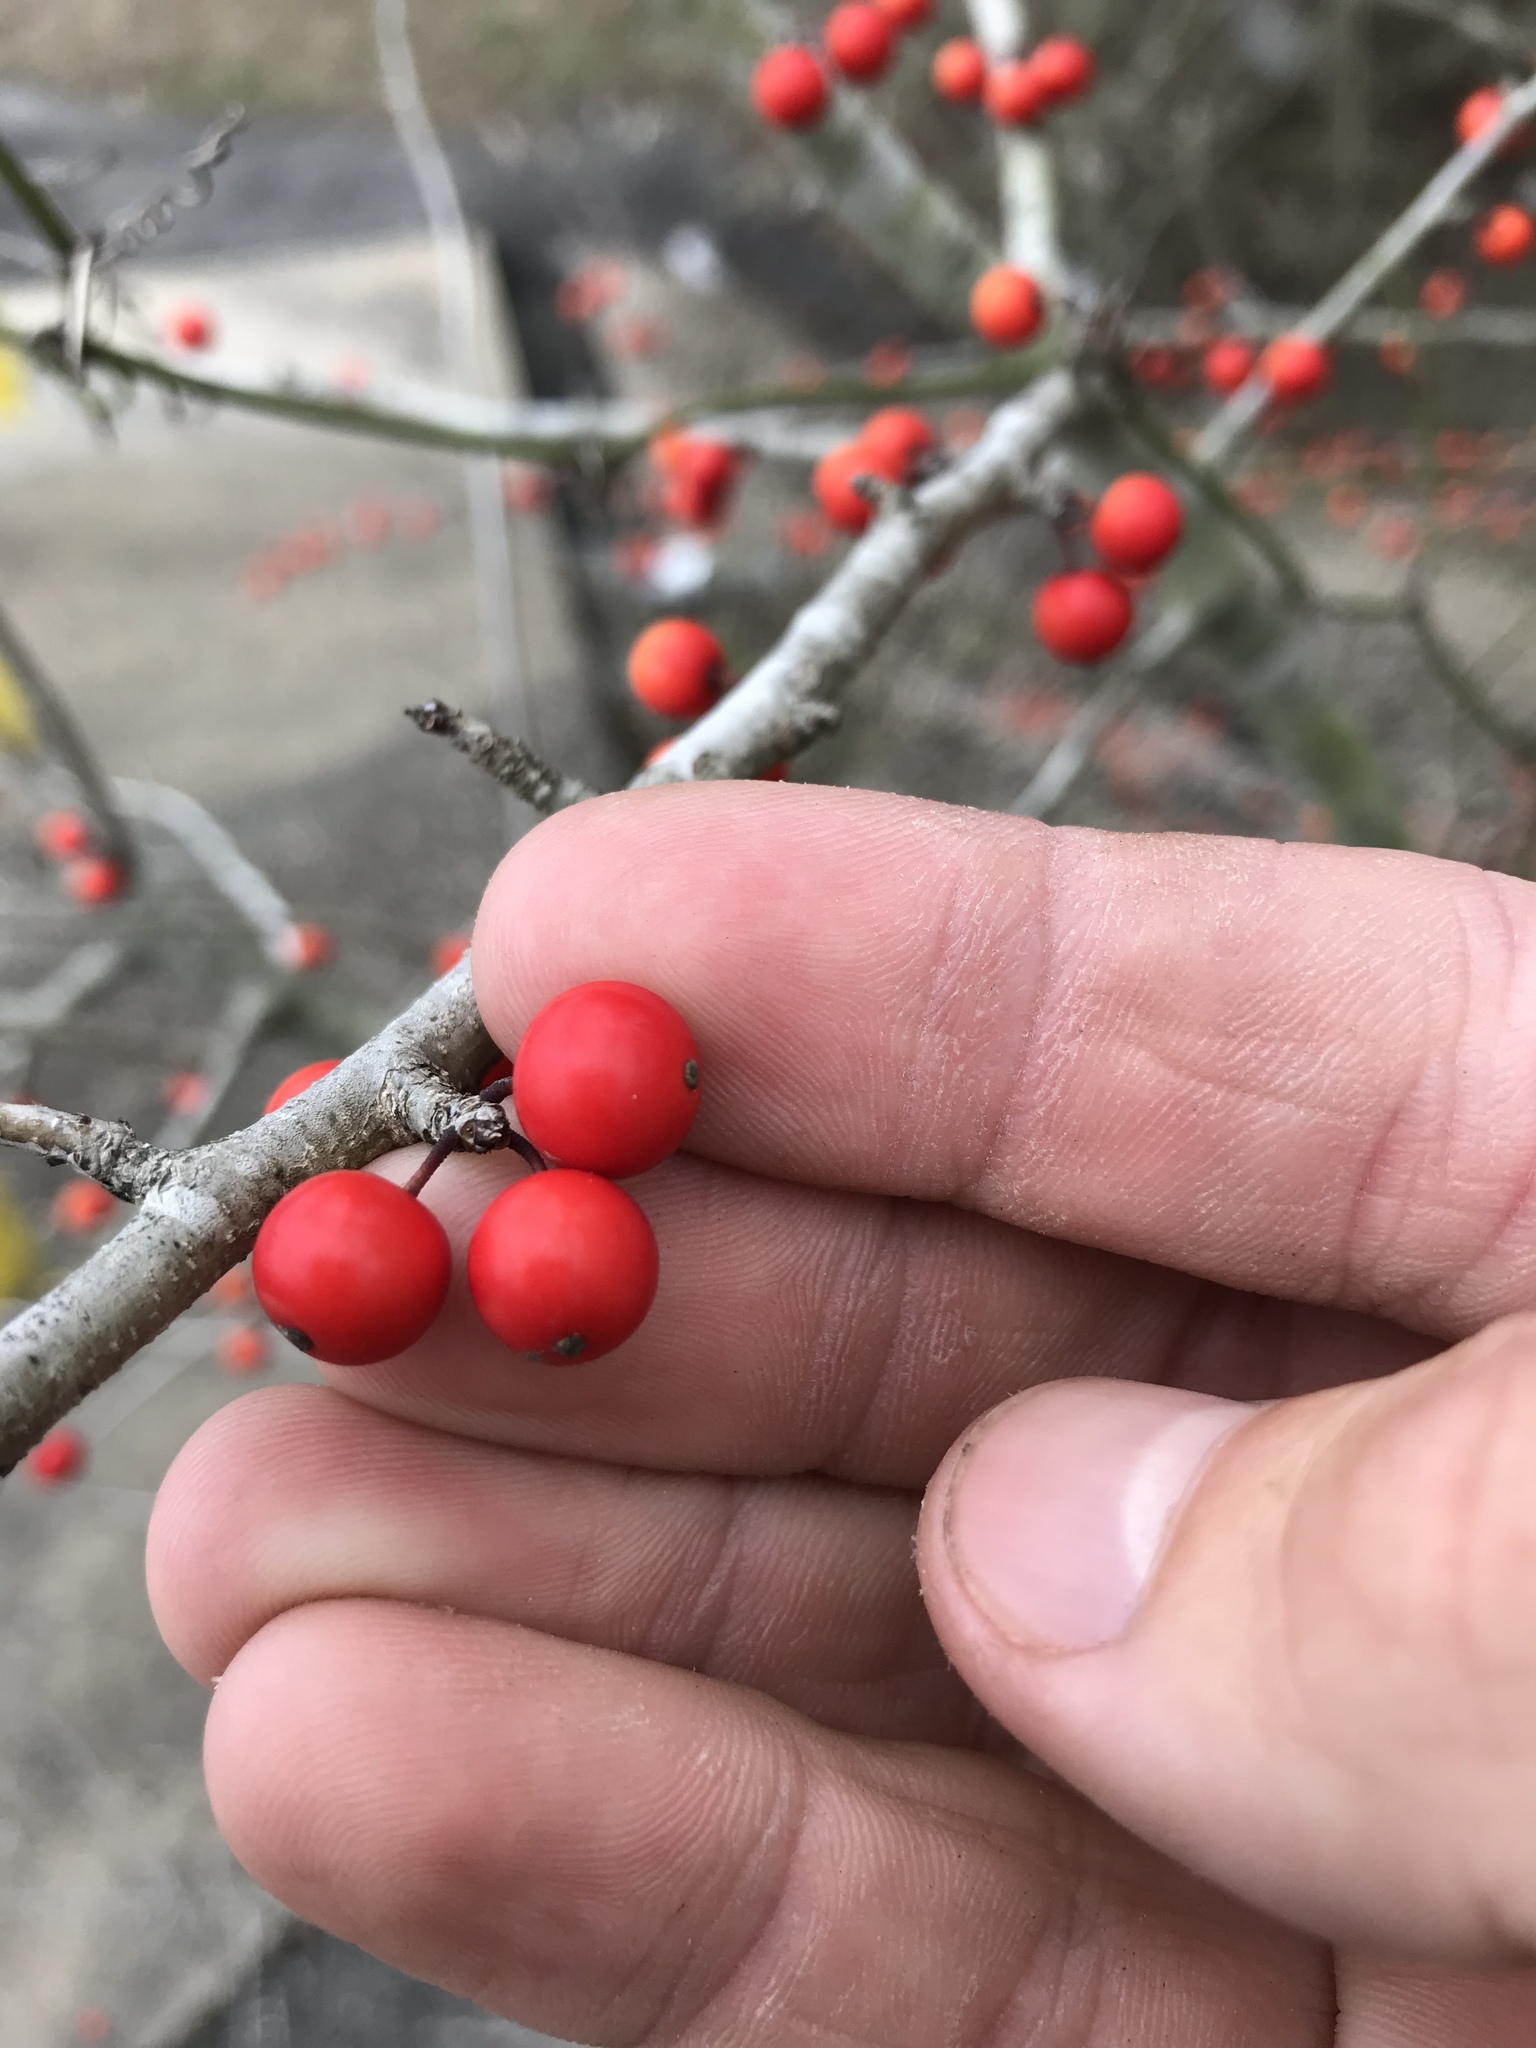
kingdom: Plantae
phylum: Tracheophyta
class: Magnoliopsida
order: Aquifoliales
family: Aquifoliaceae
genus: Ilex
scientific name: Ilex decidua
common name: Possum-haw
